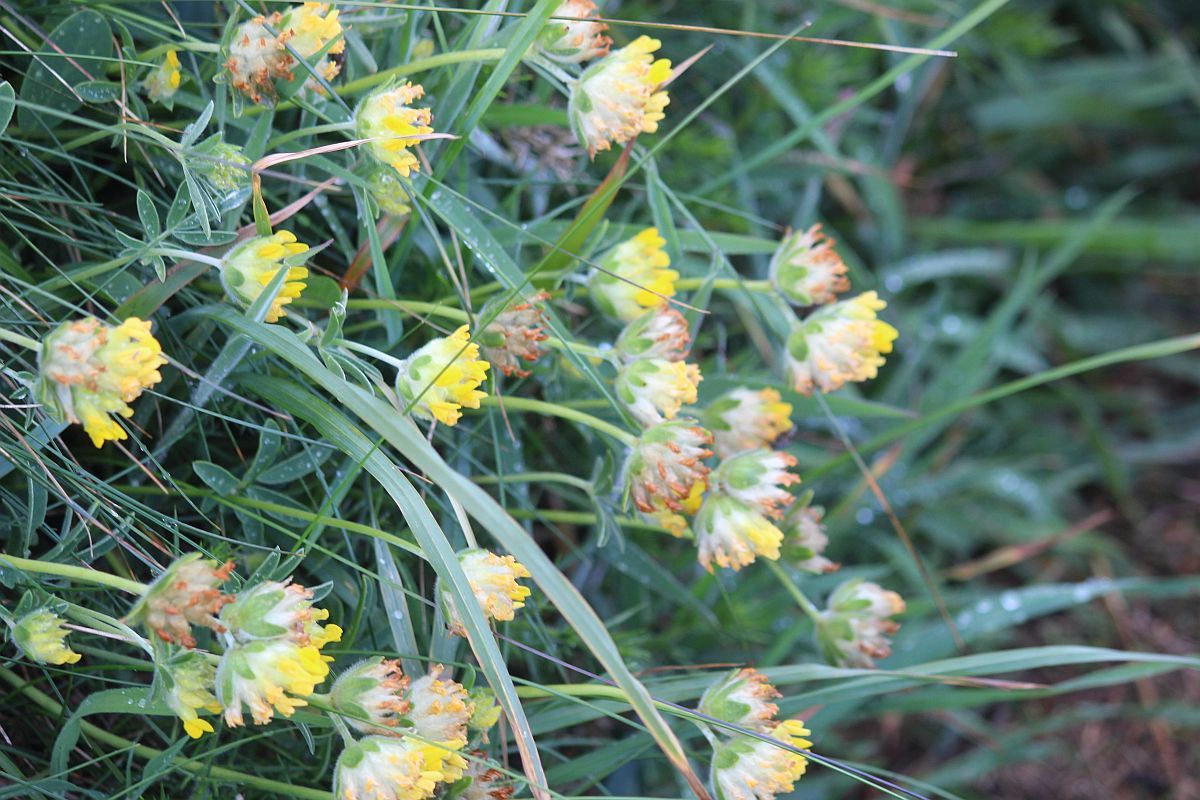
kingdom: Plantae
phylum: Tracheophyta
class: Magnoliopsida
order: Fabales
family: Fabaceae
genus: Anthyllis
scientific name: Anthyllis vulneraria
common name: Kidney vetch
